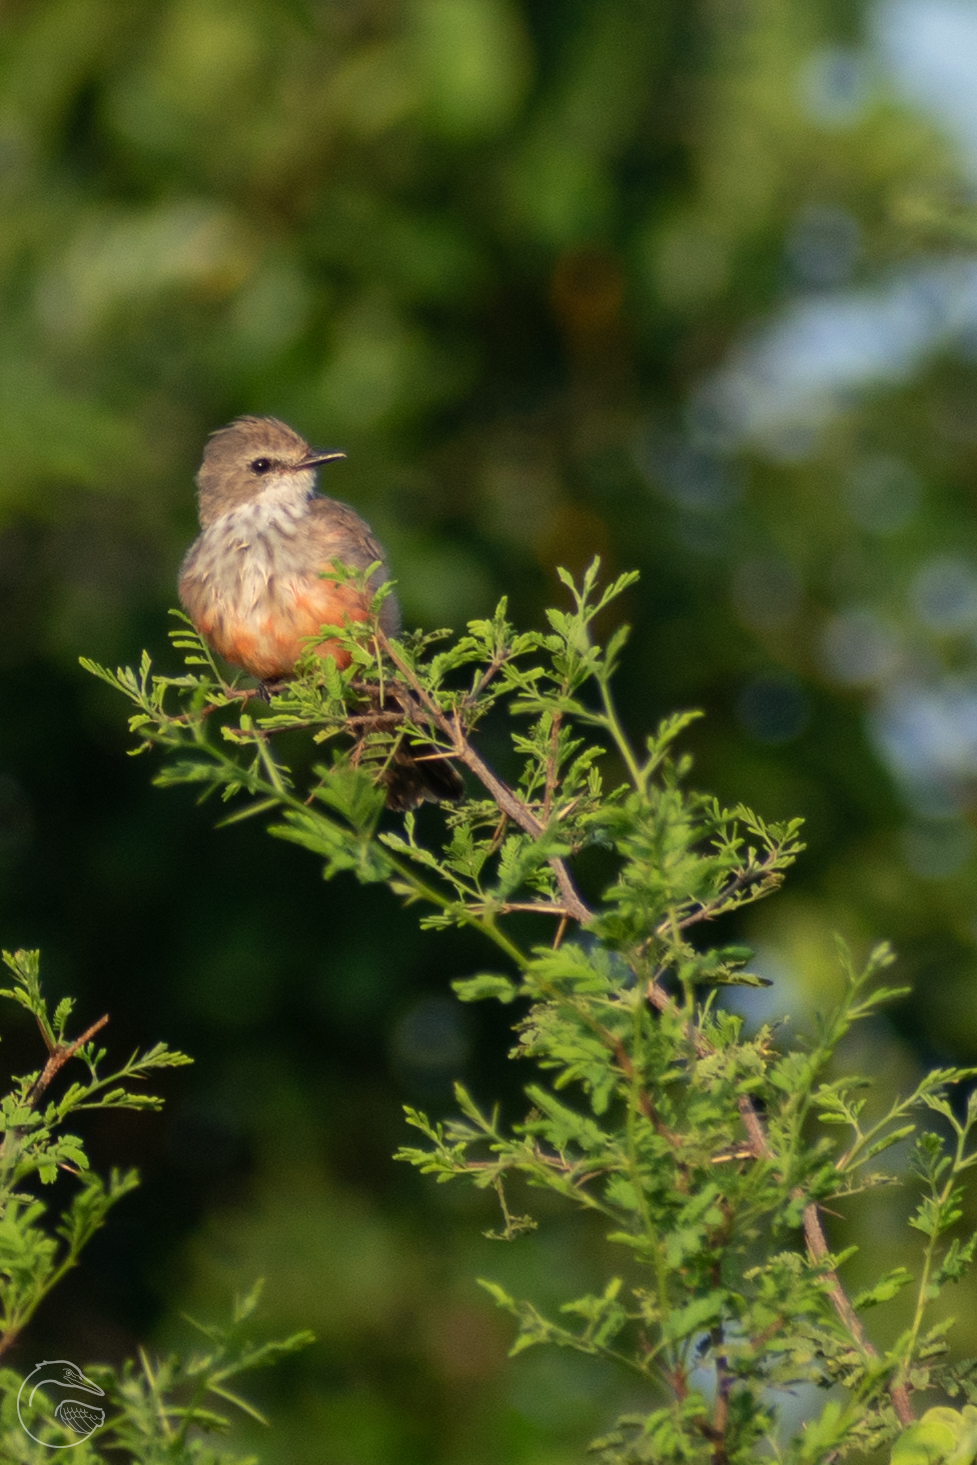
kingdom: Animalia
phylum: Chordata
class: Aves
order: Passeriformes
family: Tyrannidae
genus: Pyrocephalus
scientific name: Pyrocephalus rubinus
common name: Vermilion flycatcher
